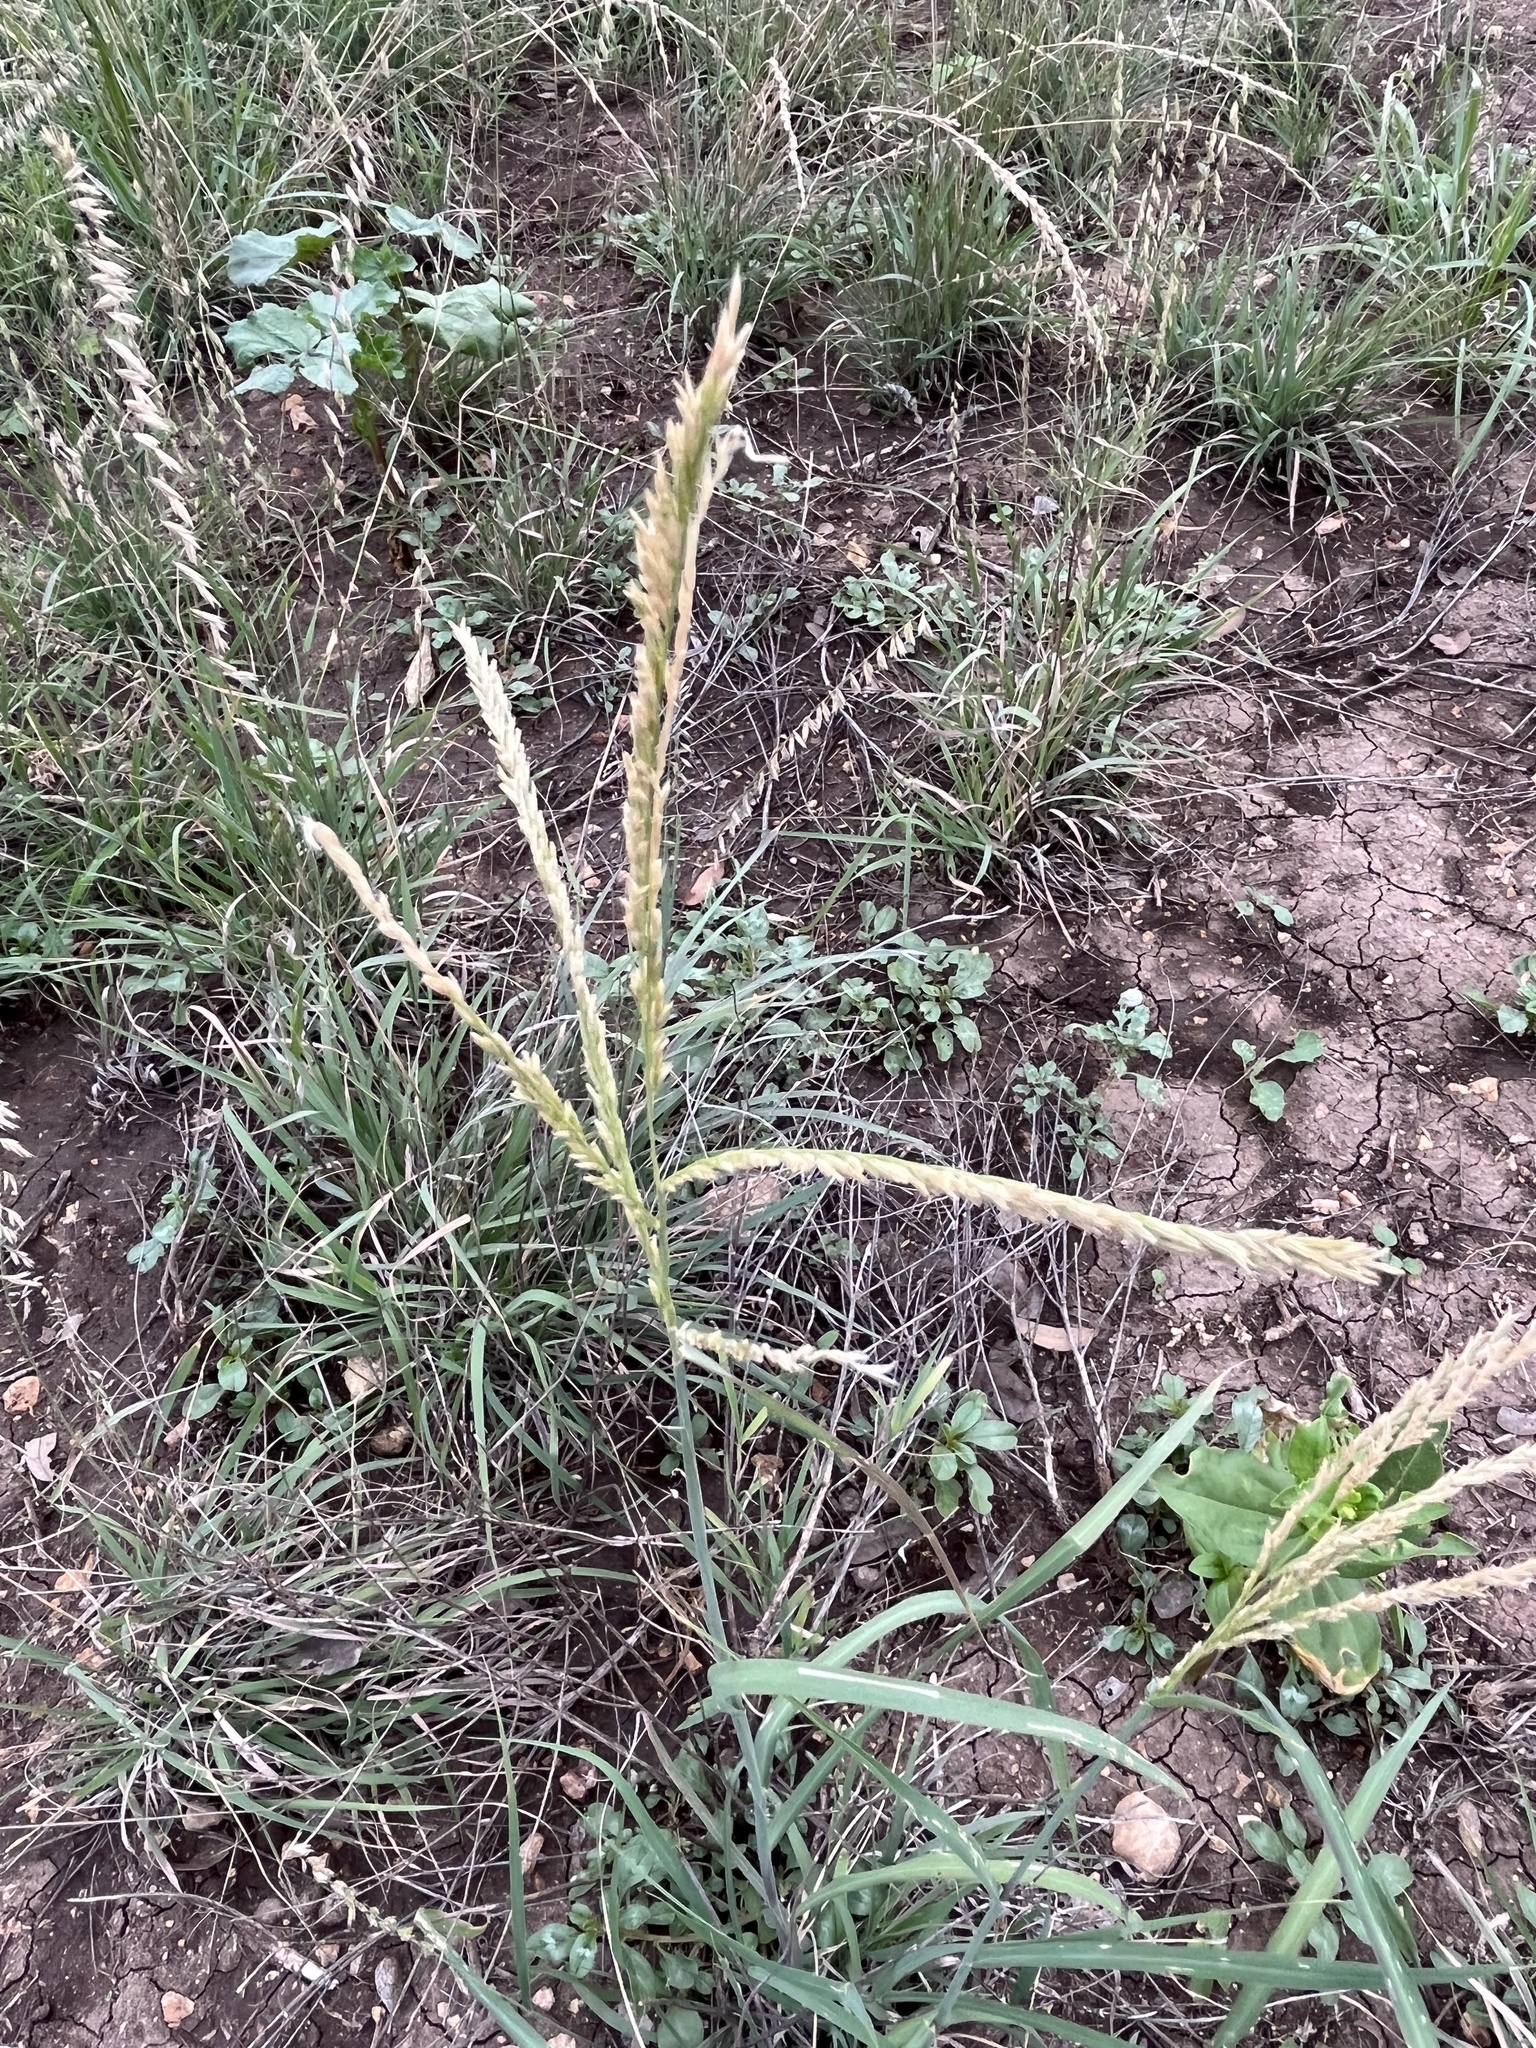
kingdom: Plantae
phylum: Tracheophyta
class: Liliopsida
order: Poales
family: Poaceae
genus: Disakisperma
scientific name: Disakisperma dubium
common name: Green sprangletop
